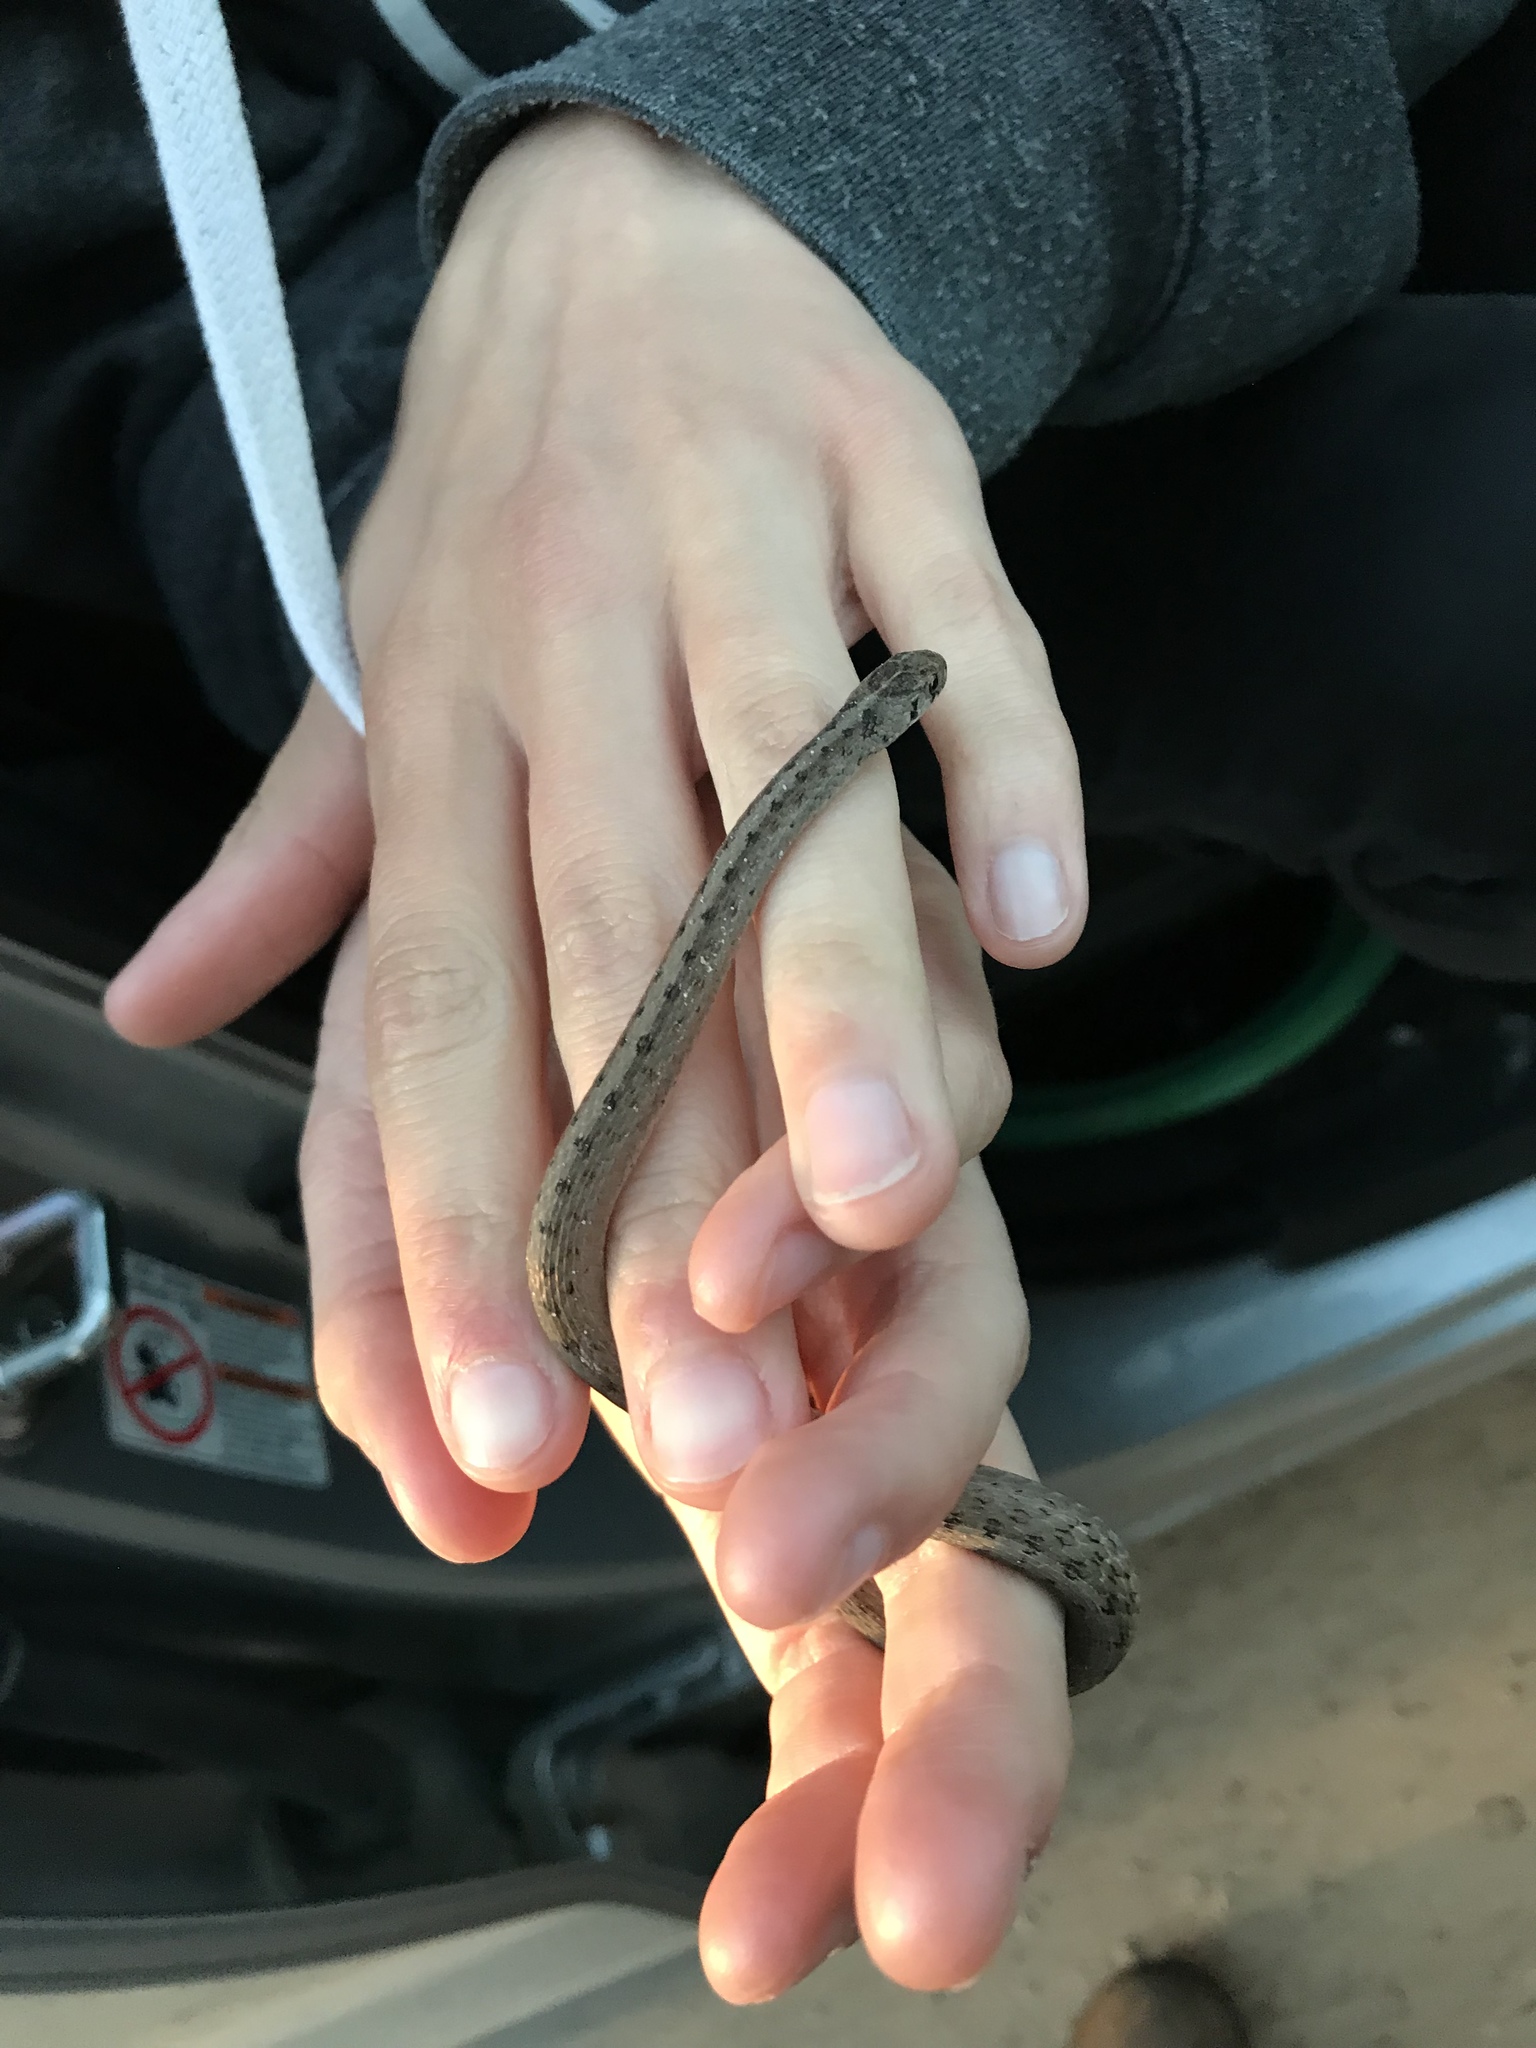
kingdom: Animalia
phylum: Chordata
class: Squamata
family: Colubridae
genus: Storeria
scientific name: Storeria dekayi
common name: (dekay’s) brown snake
